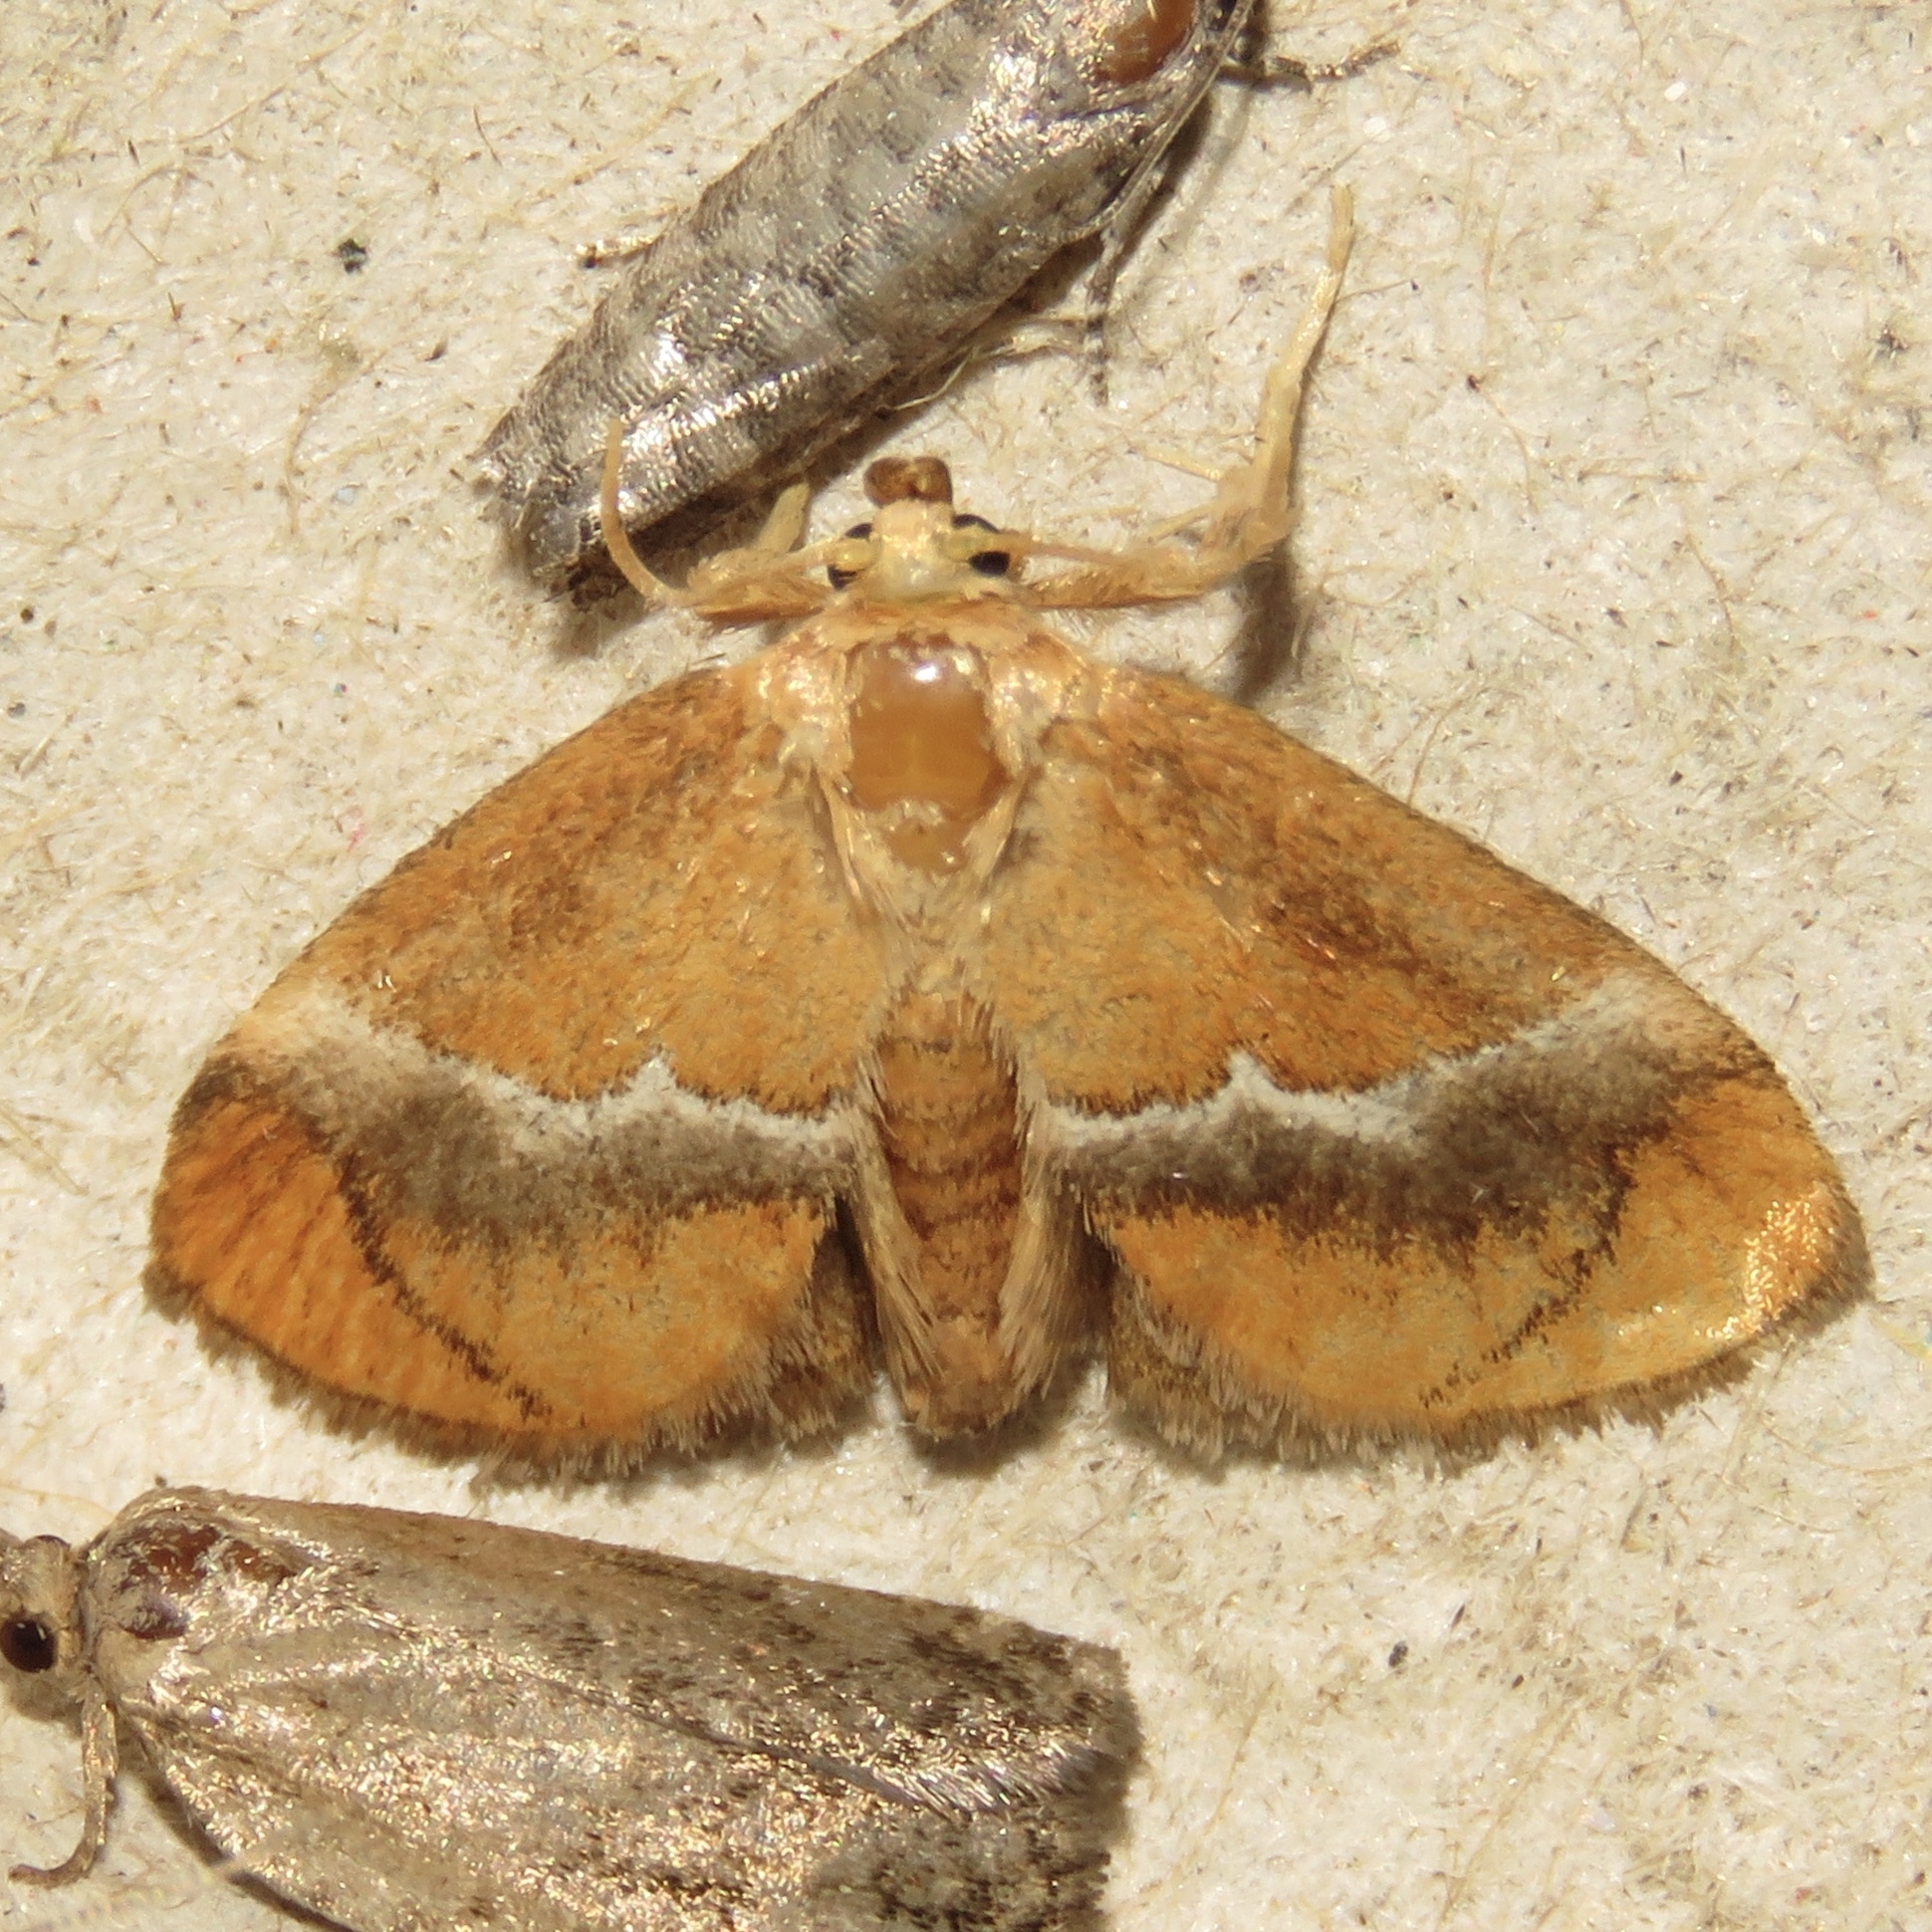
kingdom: Animalia
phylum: Arthropoda
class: Insecta
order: Lepidoptera
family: Limacodidae
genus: Lithacodes
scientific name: Lithacodes fasciola
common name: Yellow-shouldered slug moth
